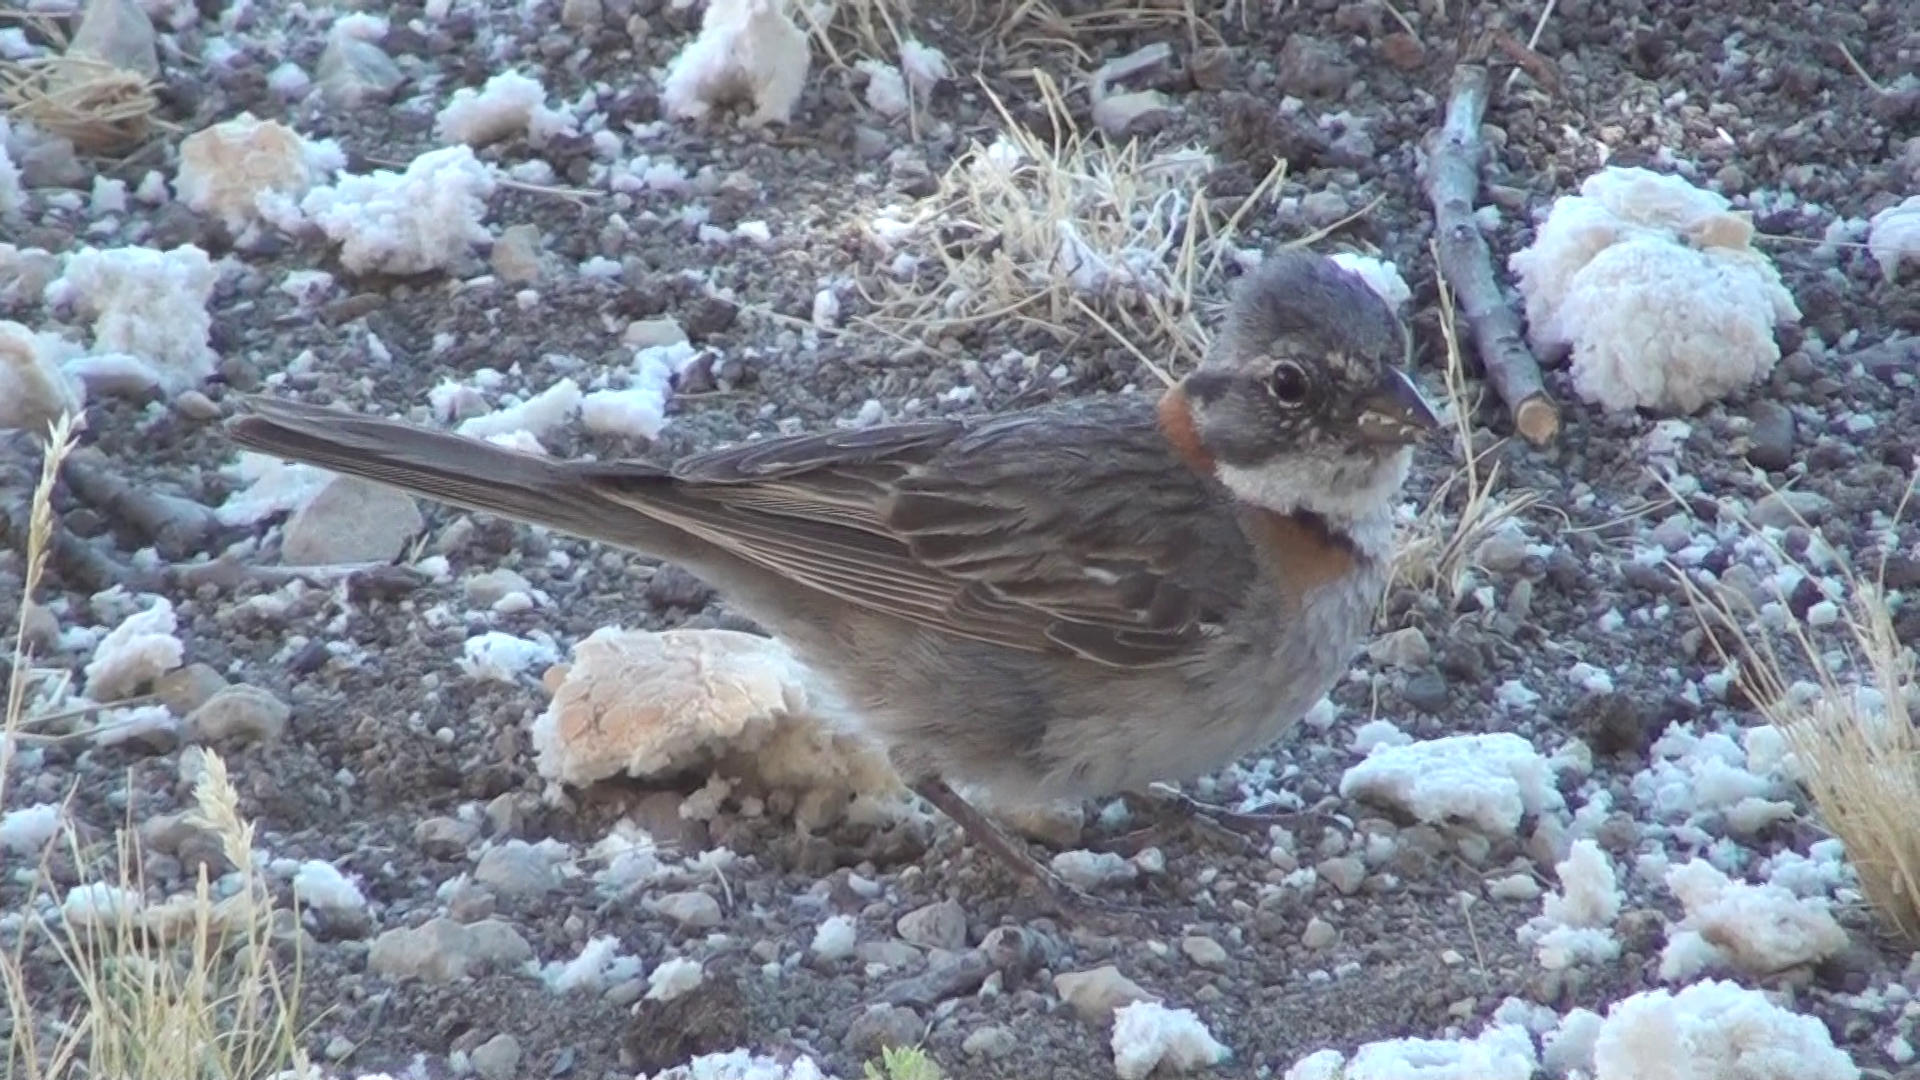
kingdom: Animalia
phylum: Chordata
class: Aves
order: Passeriformes
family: Passerellidae
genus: Zonotrichia
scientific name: Zonotrichia capensis
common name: Rufous-collared sparrow
